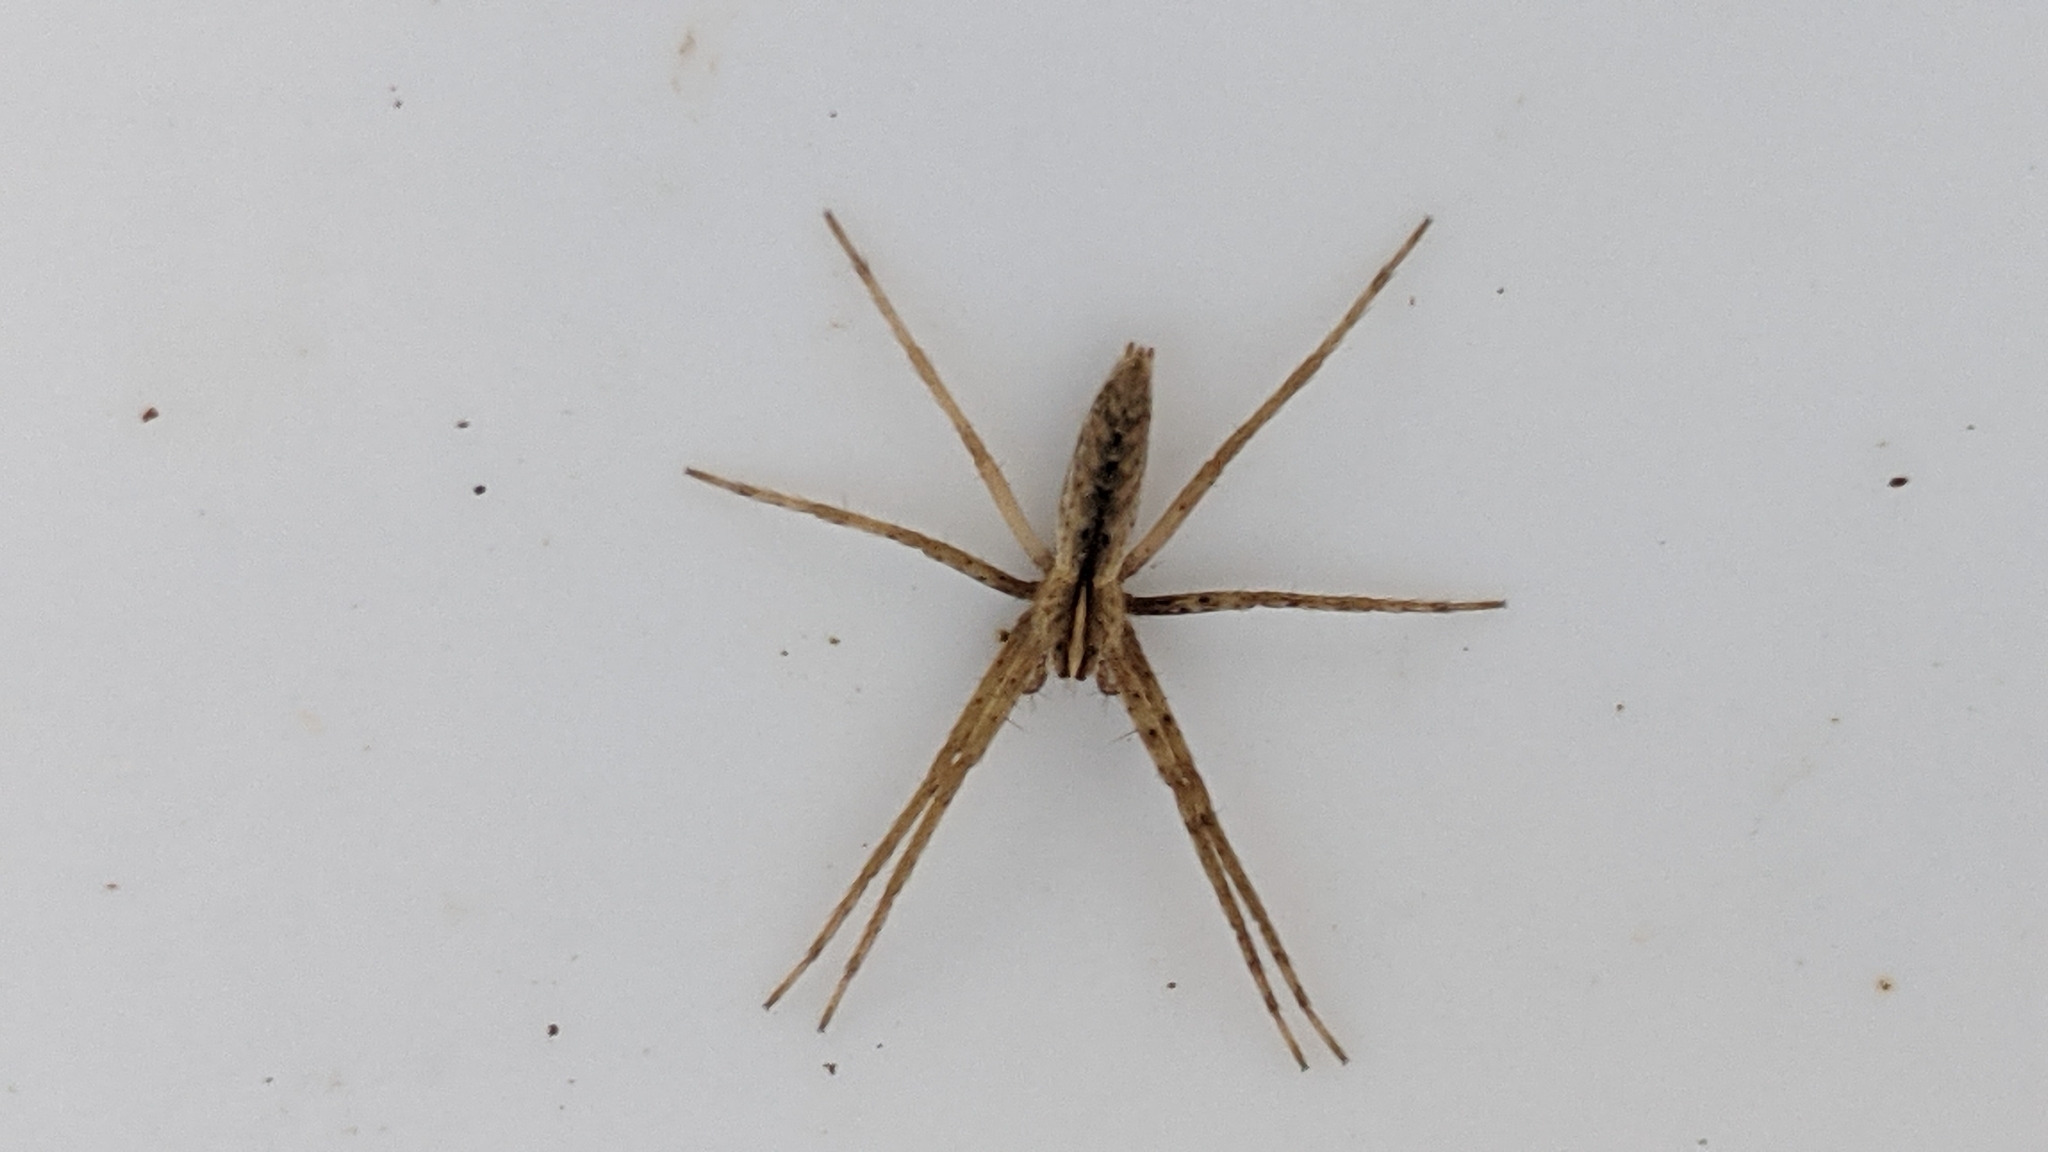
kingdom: Animalia
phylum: Arthropoda
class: Arachnida
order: Araneae
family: Pisauridae
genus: Pisaurina
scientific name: Pisaurina dubia
